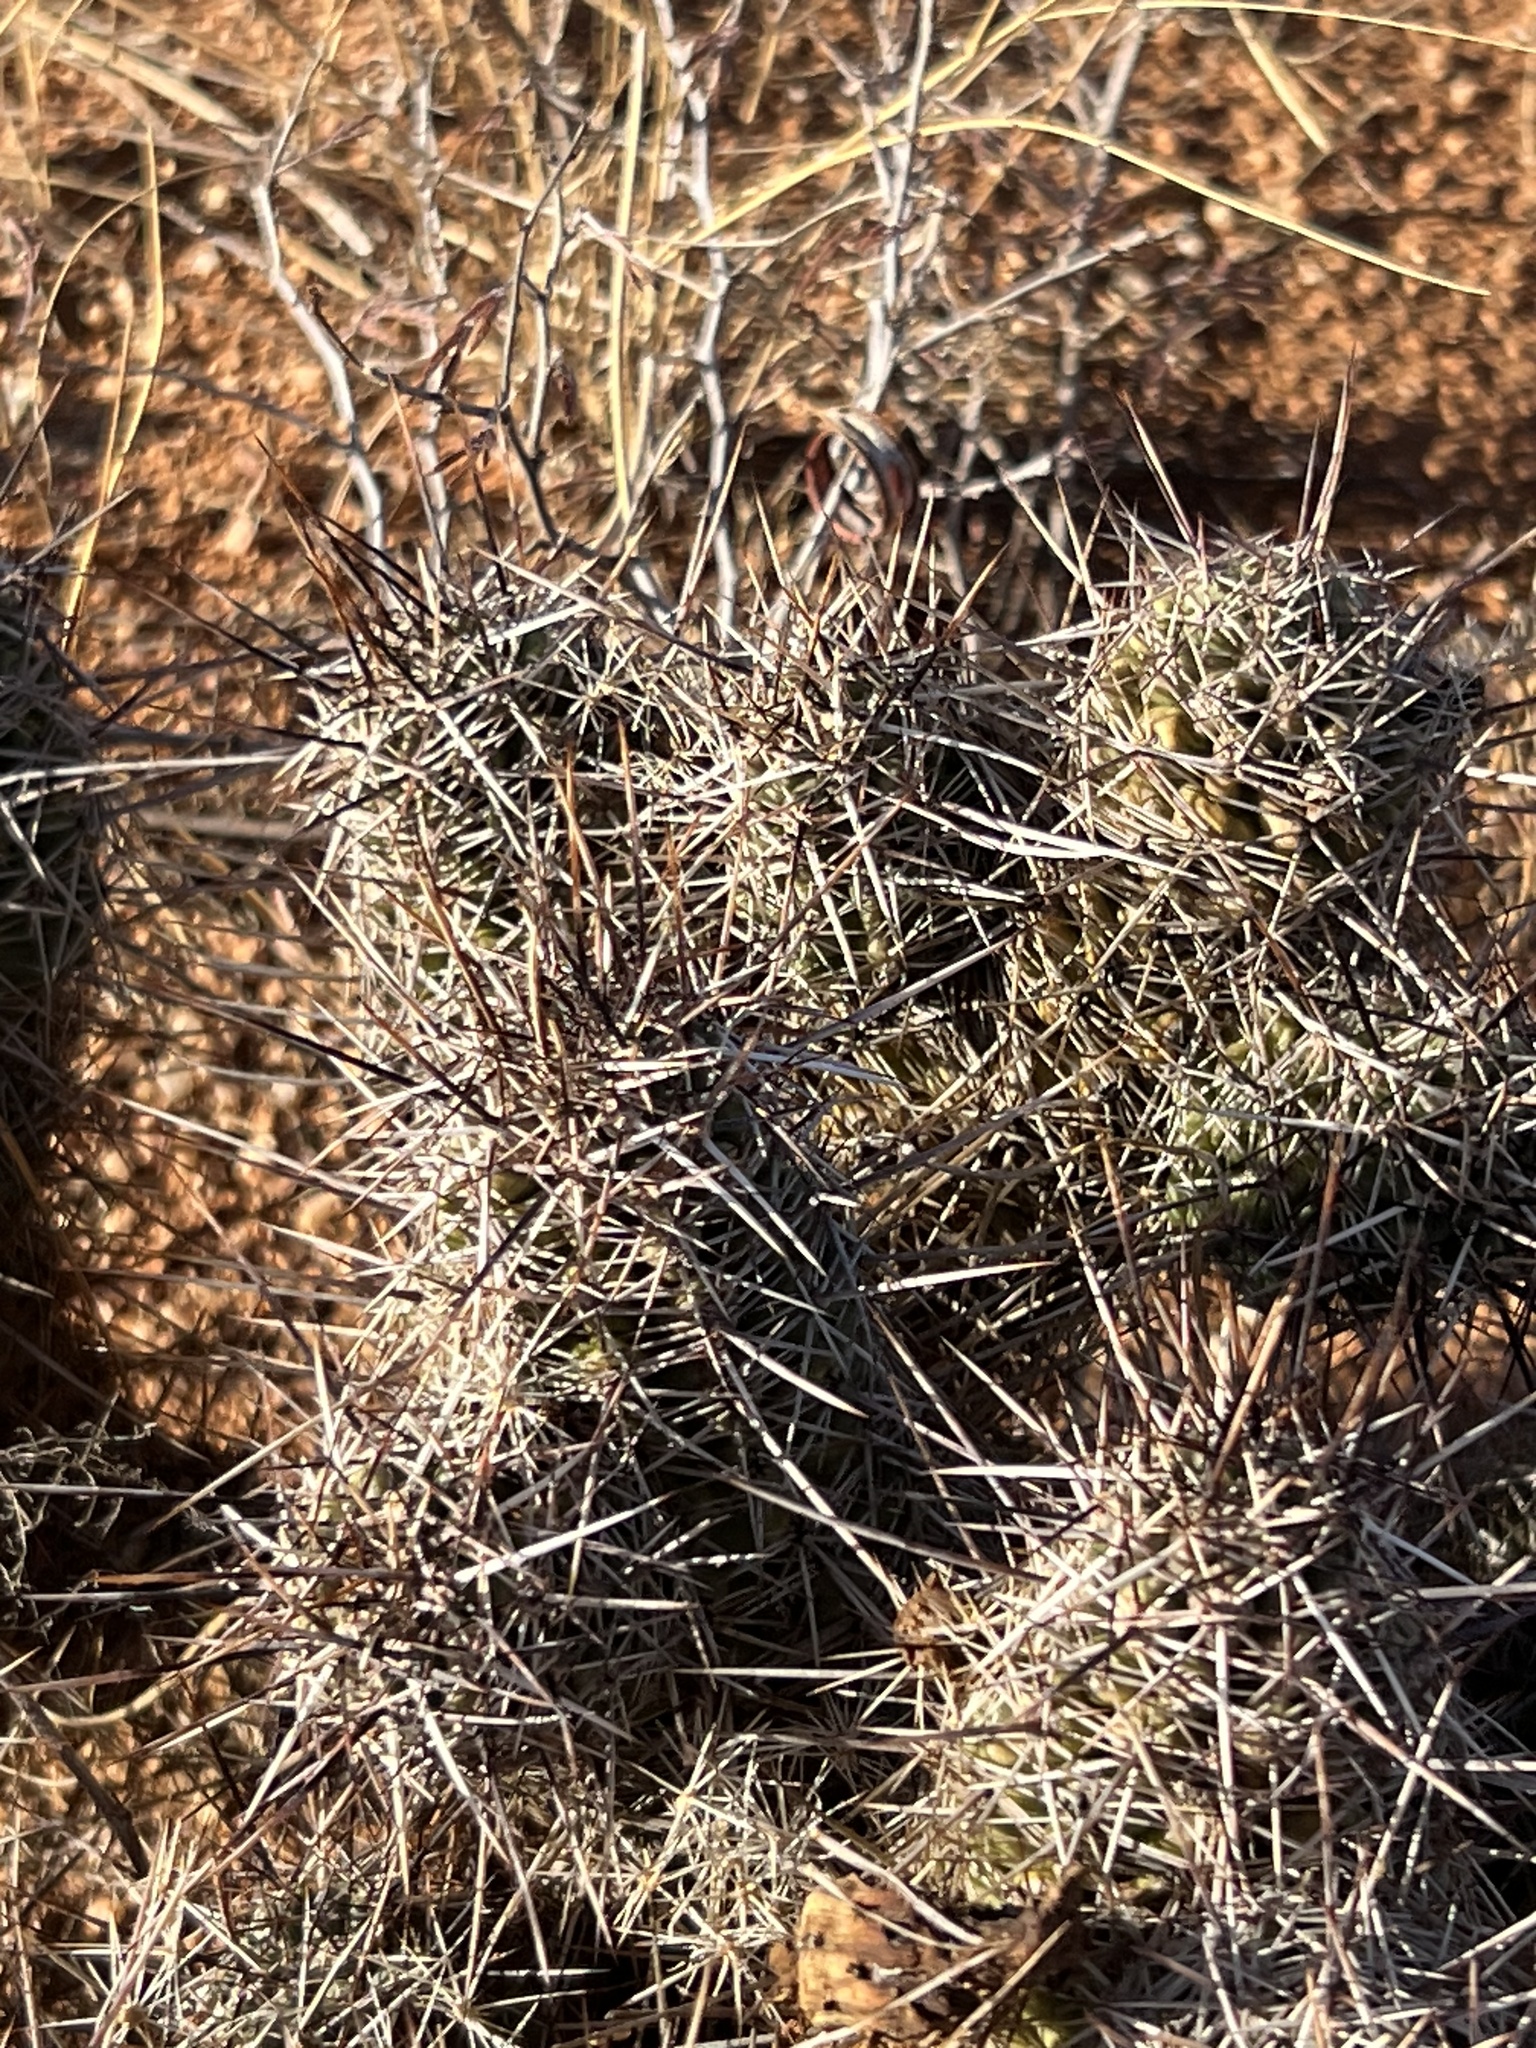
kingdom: Plantae
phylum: Tracheophyta
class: Magnoliopsida
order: Caryophyllales
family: Cactaceae
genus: Echinocereus
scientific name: Echinocereus fasciculatus
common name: Bundle hedgehog
